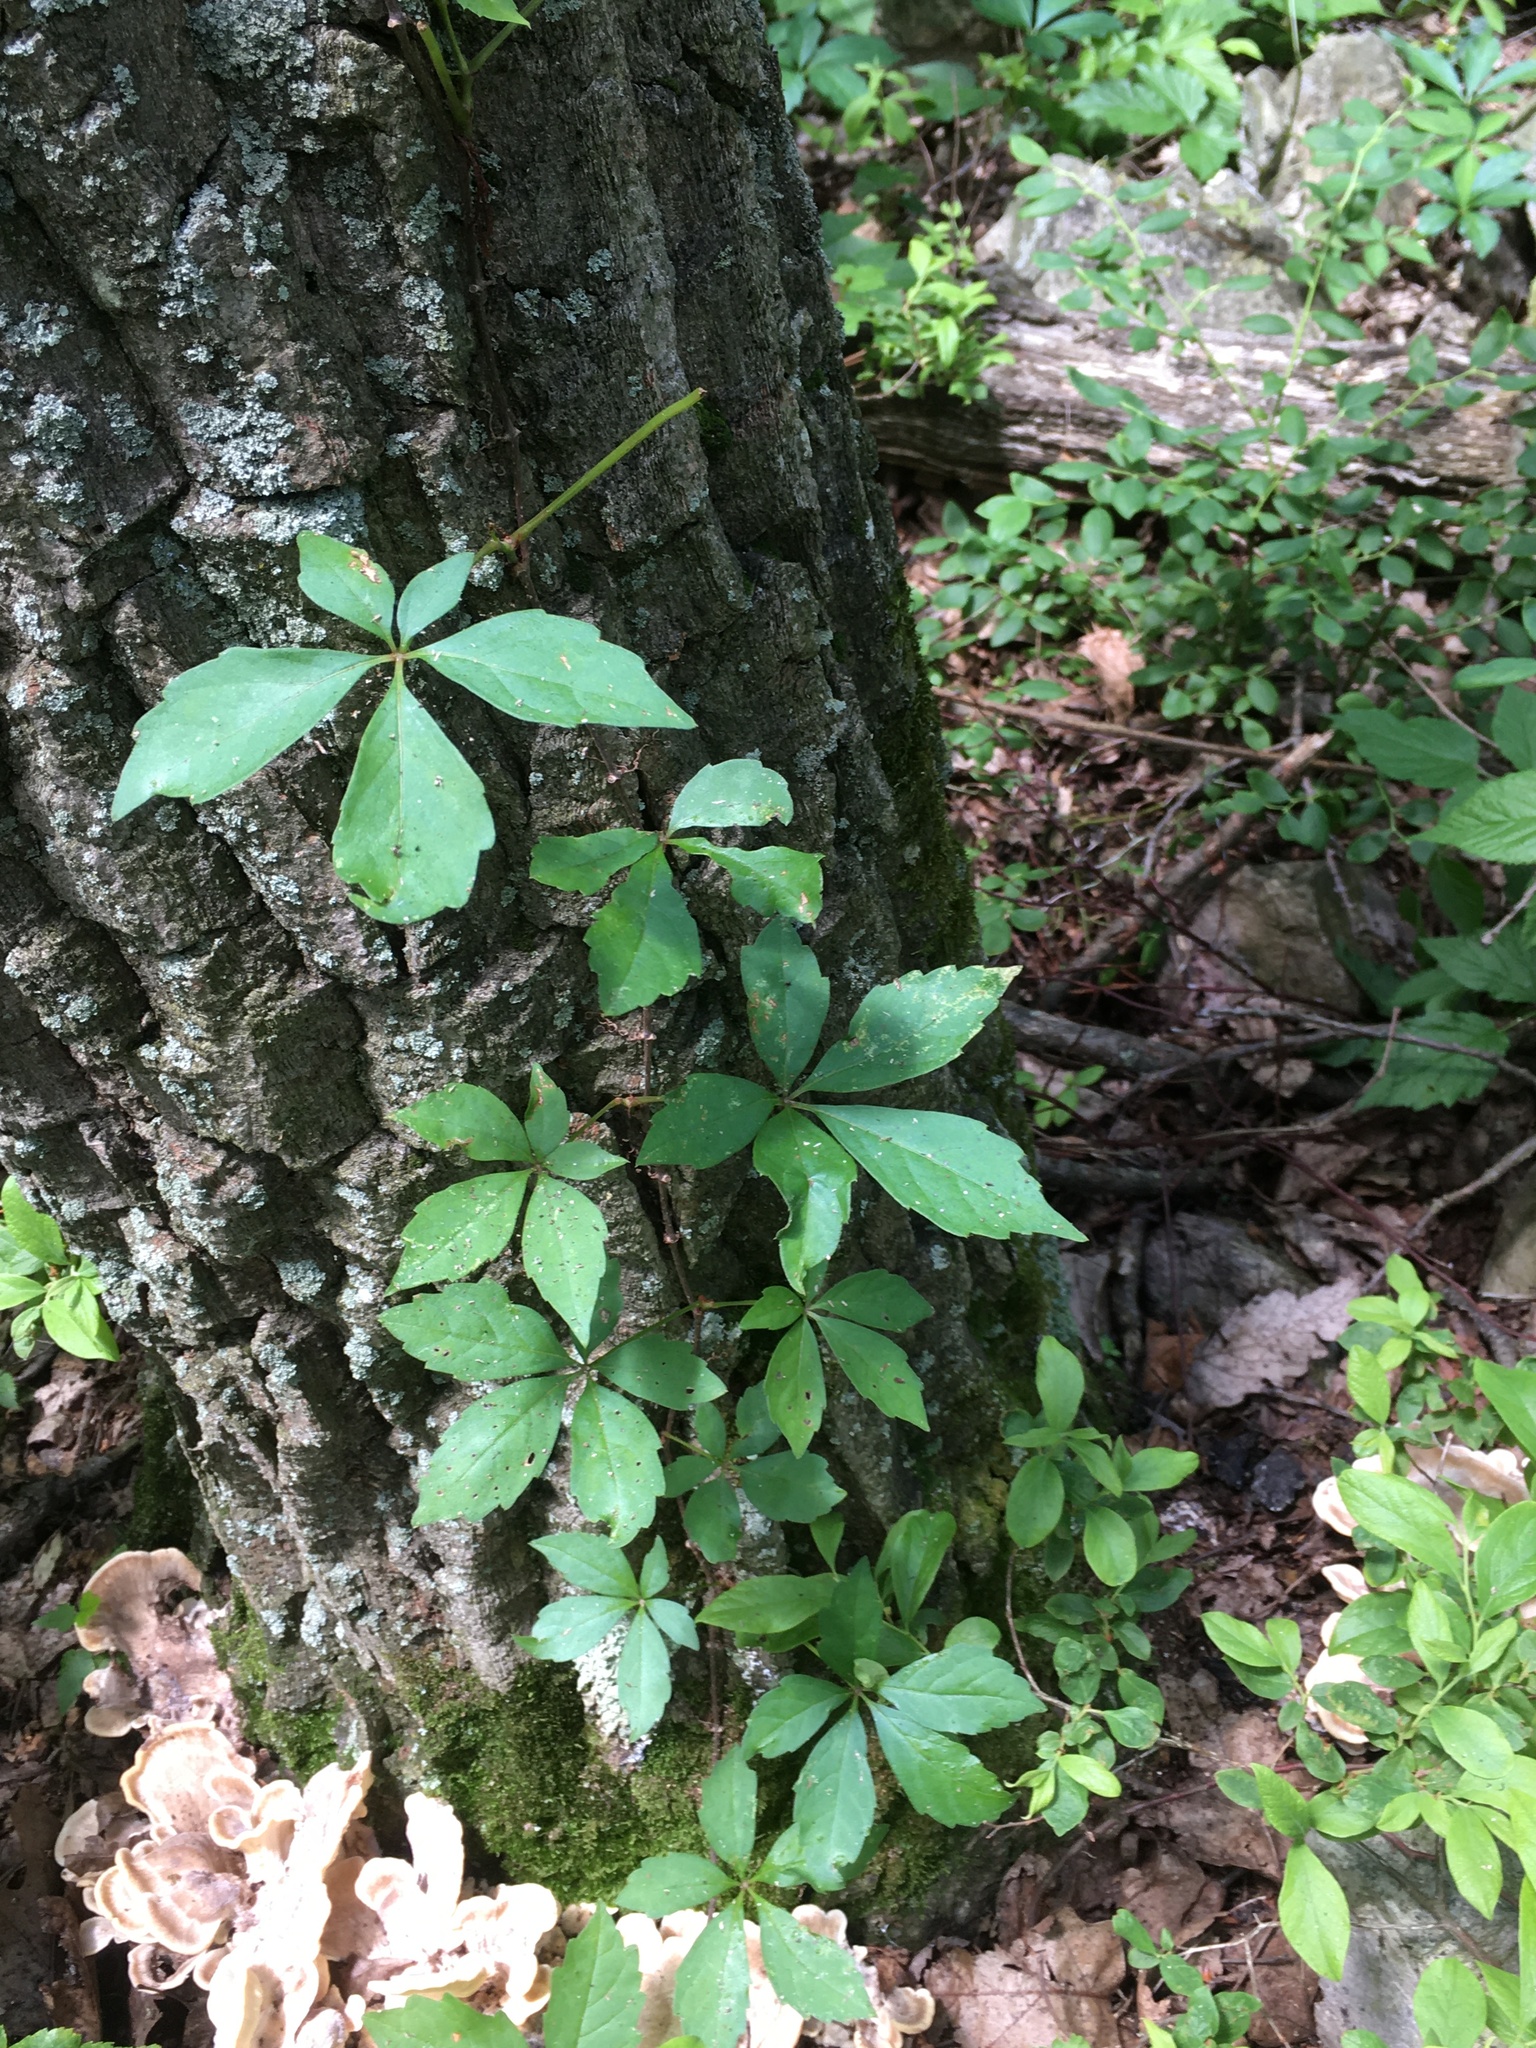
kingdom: Plantae
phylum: Tracheophyta
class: Magnoliopsida
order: Vitales
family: Vitaceae
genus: Parthenocissus
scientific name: Parthenocissus quinquefolia
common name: Virginia-creeper
